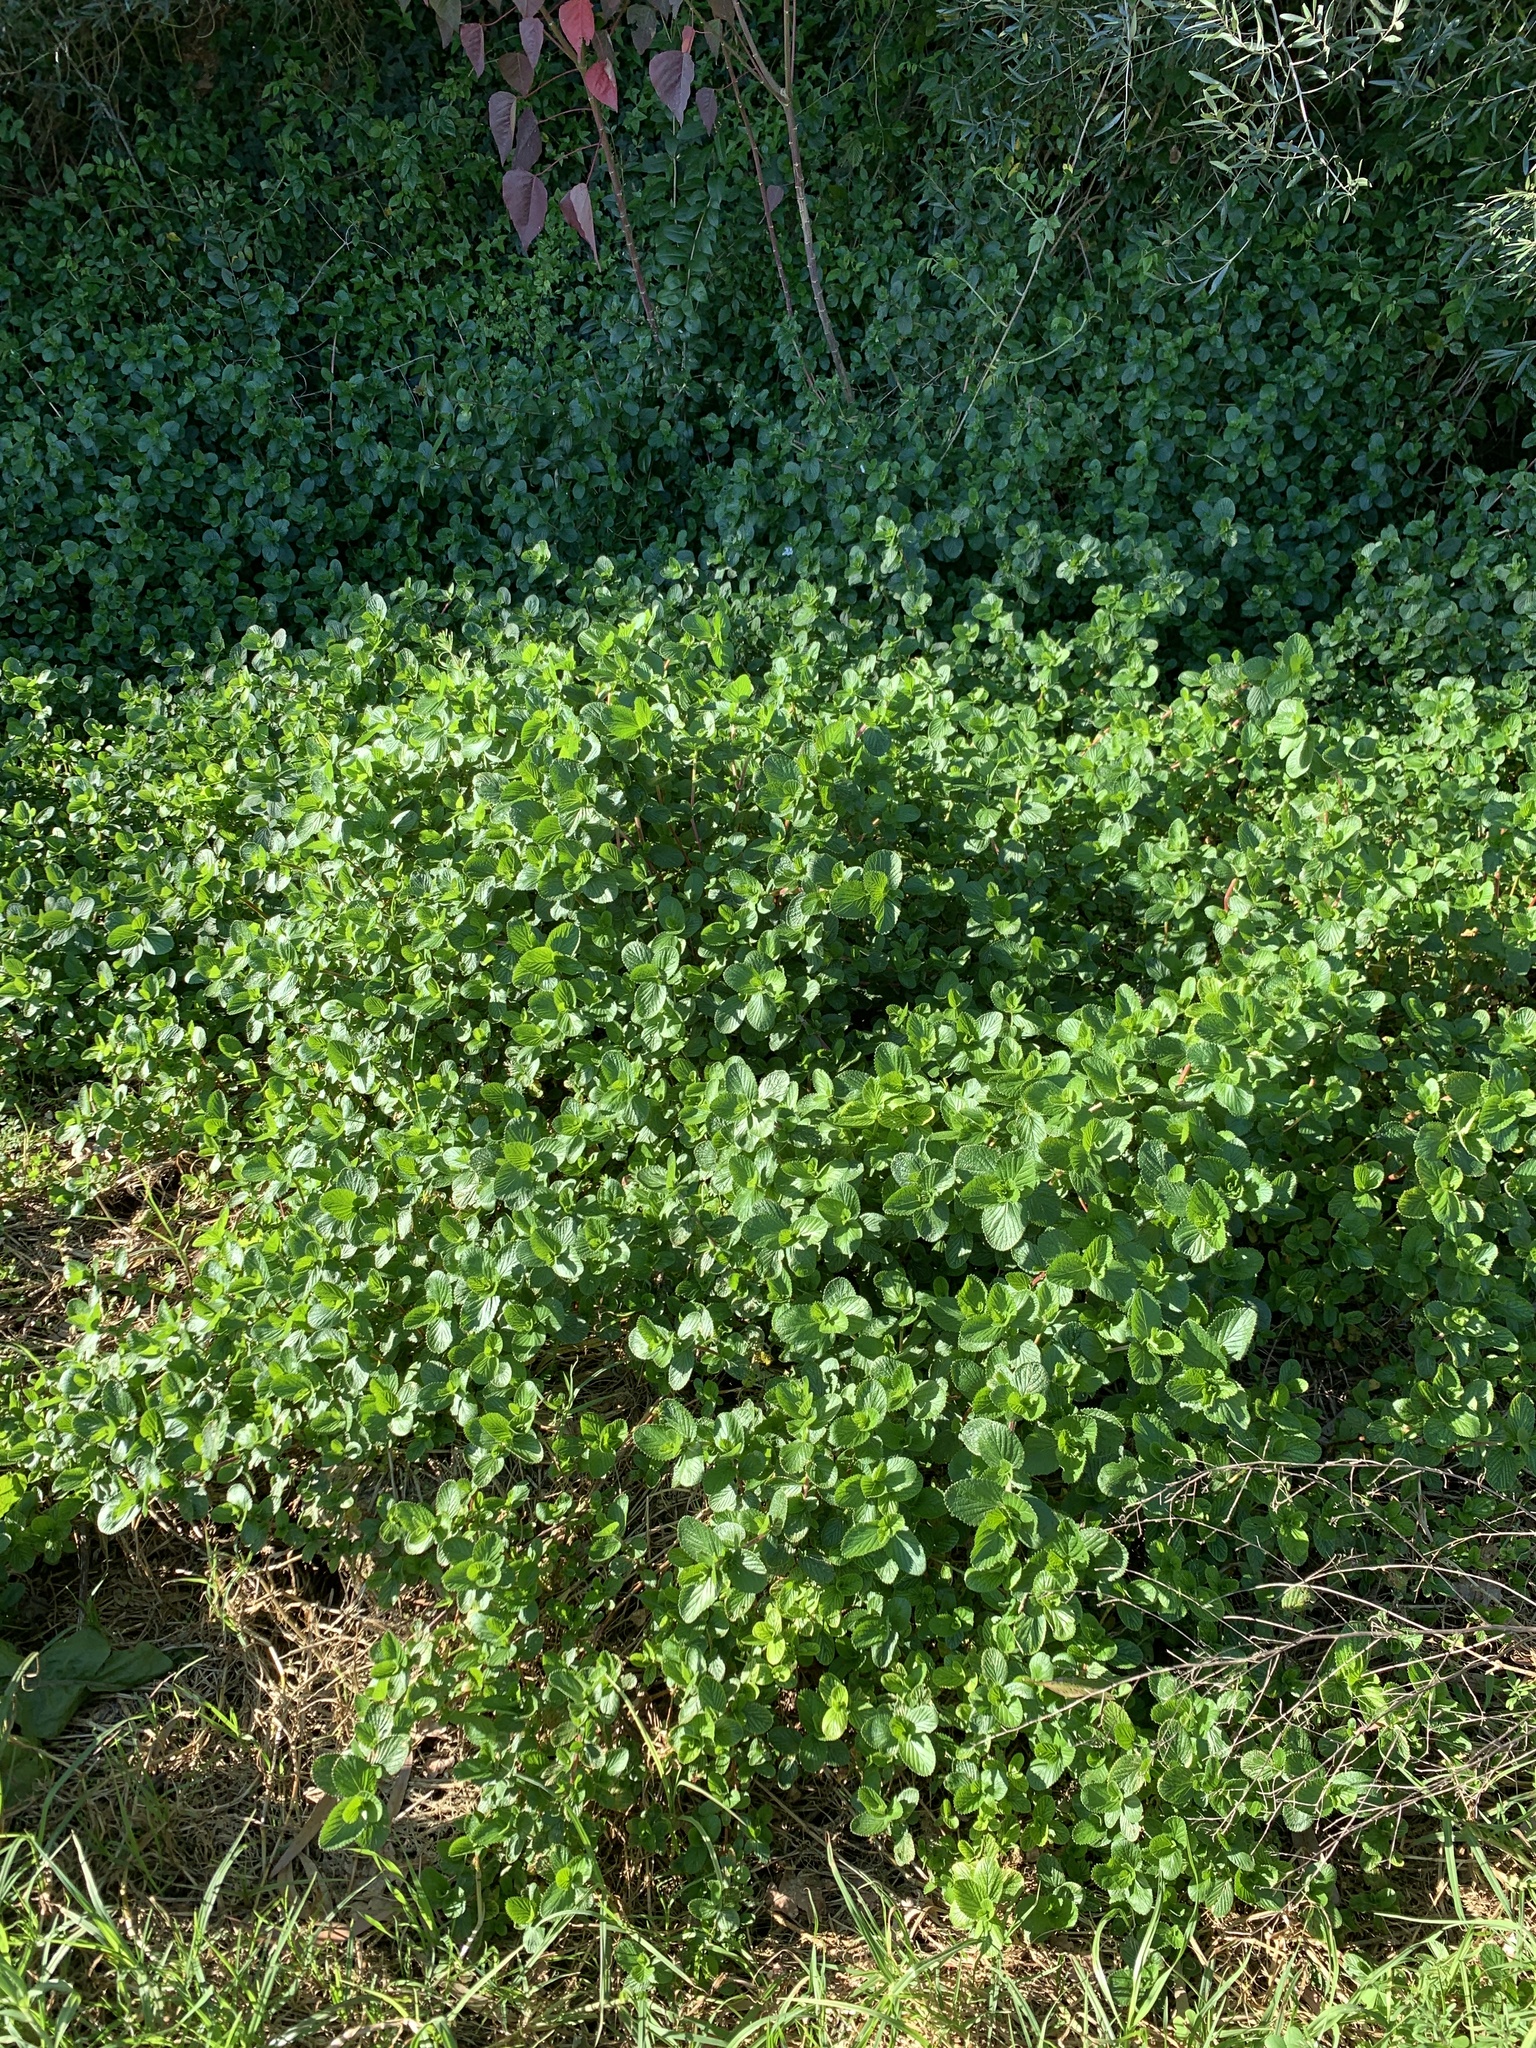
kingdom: Plantae
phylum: Tracheophyta
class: Magnoliopsida
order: Rosales
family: Rosaceae
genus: Cliffortia
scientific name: Cliffortia odorata
